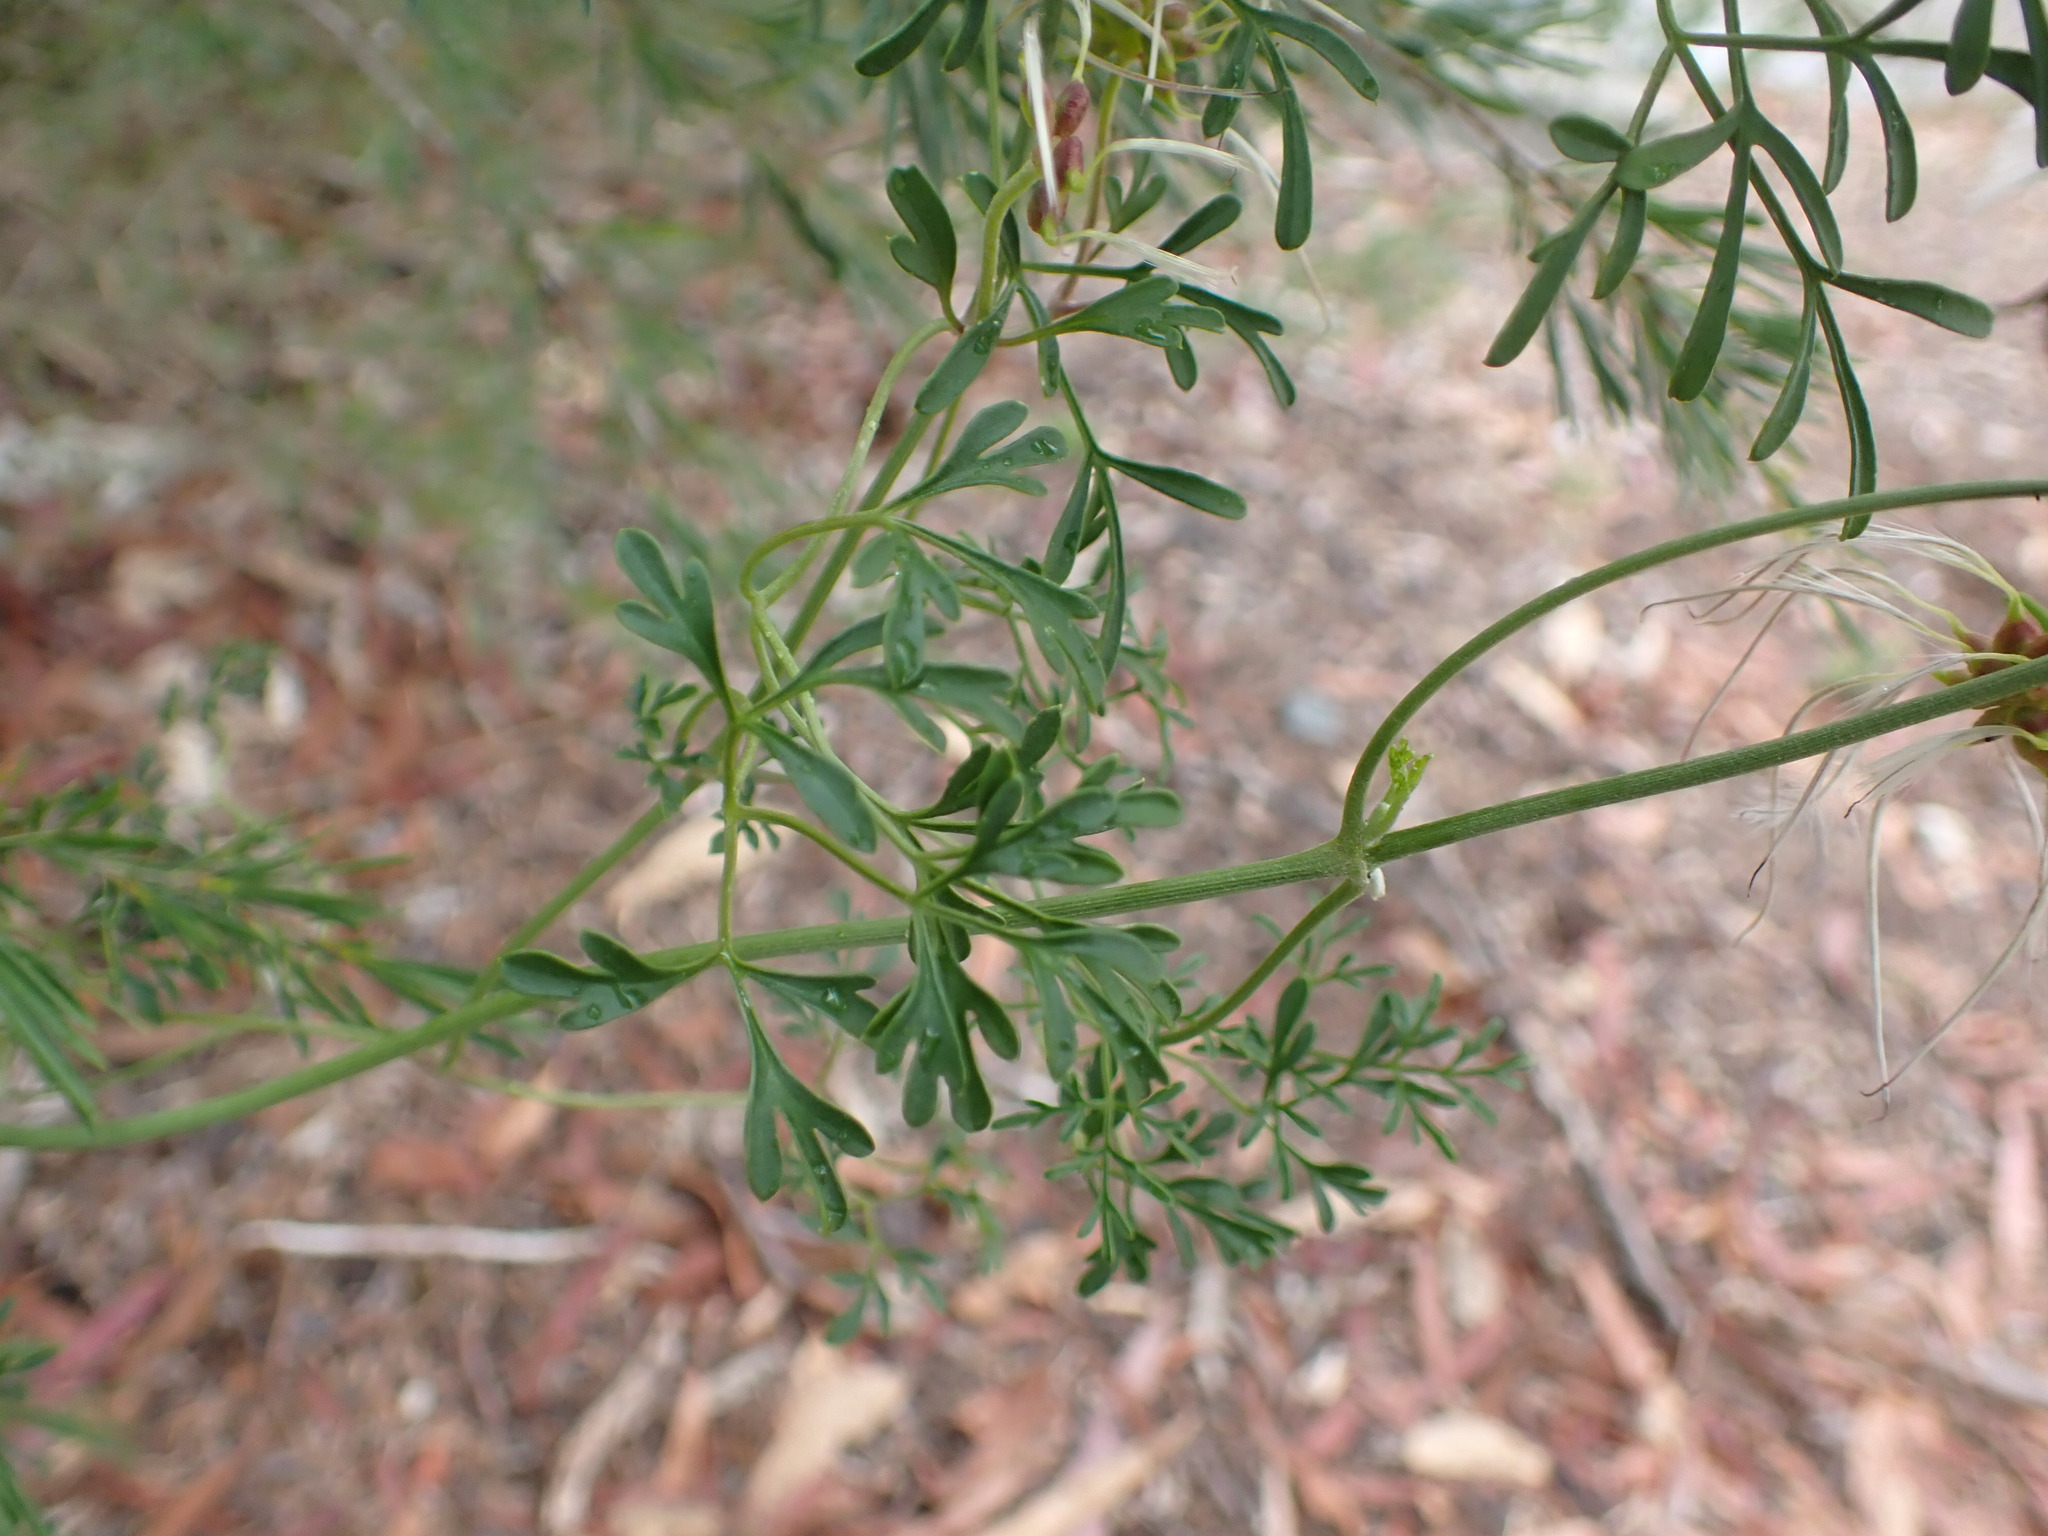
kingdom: Plantae
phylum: Tracheophyta
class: Magnoliopsida
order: Ranunculales
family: Ranunculaceae
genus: Clematis
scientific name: Clematis leptophylla
